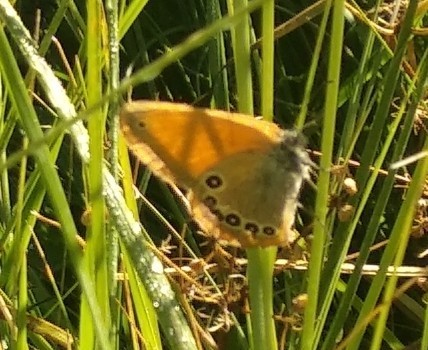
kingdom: Animalia
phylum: Arthropoda
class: Insecta
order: Lepidoptera
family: Nymphalidae
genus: Coenonympha
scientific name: Coenonympha iphis
